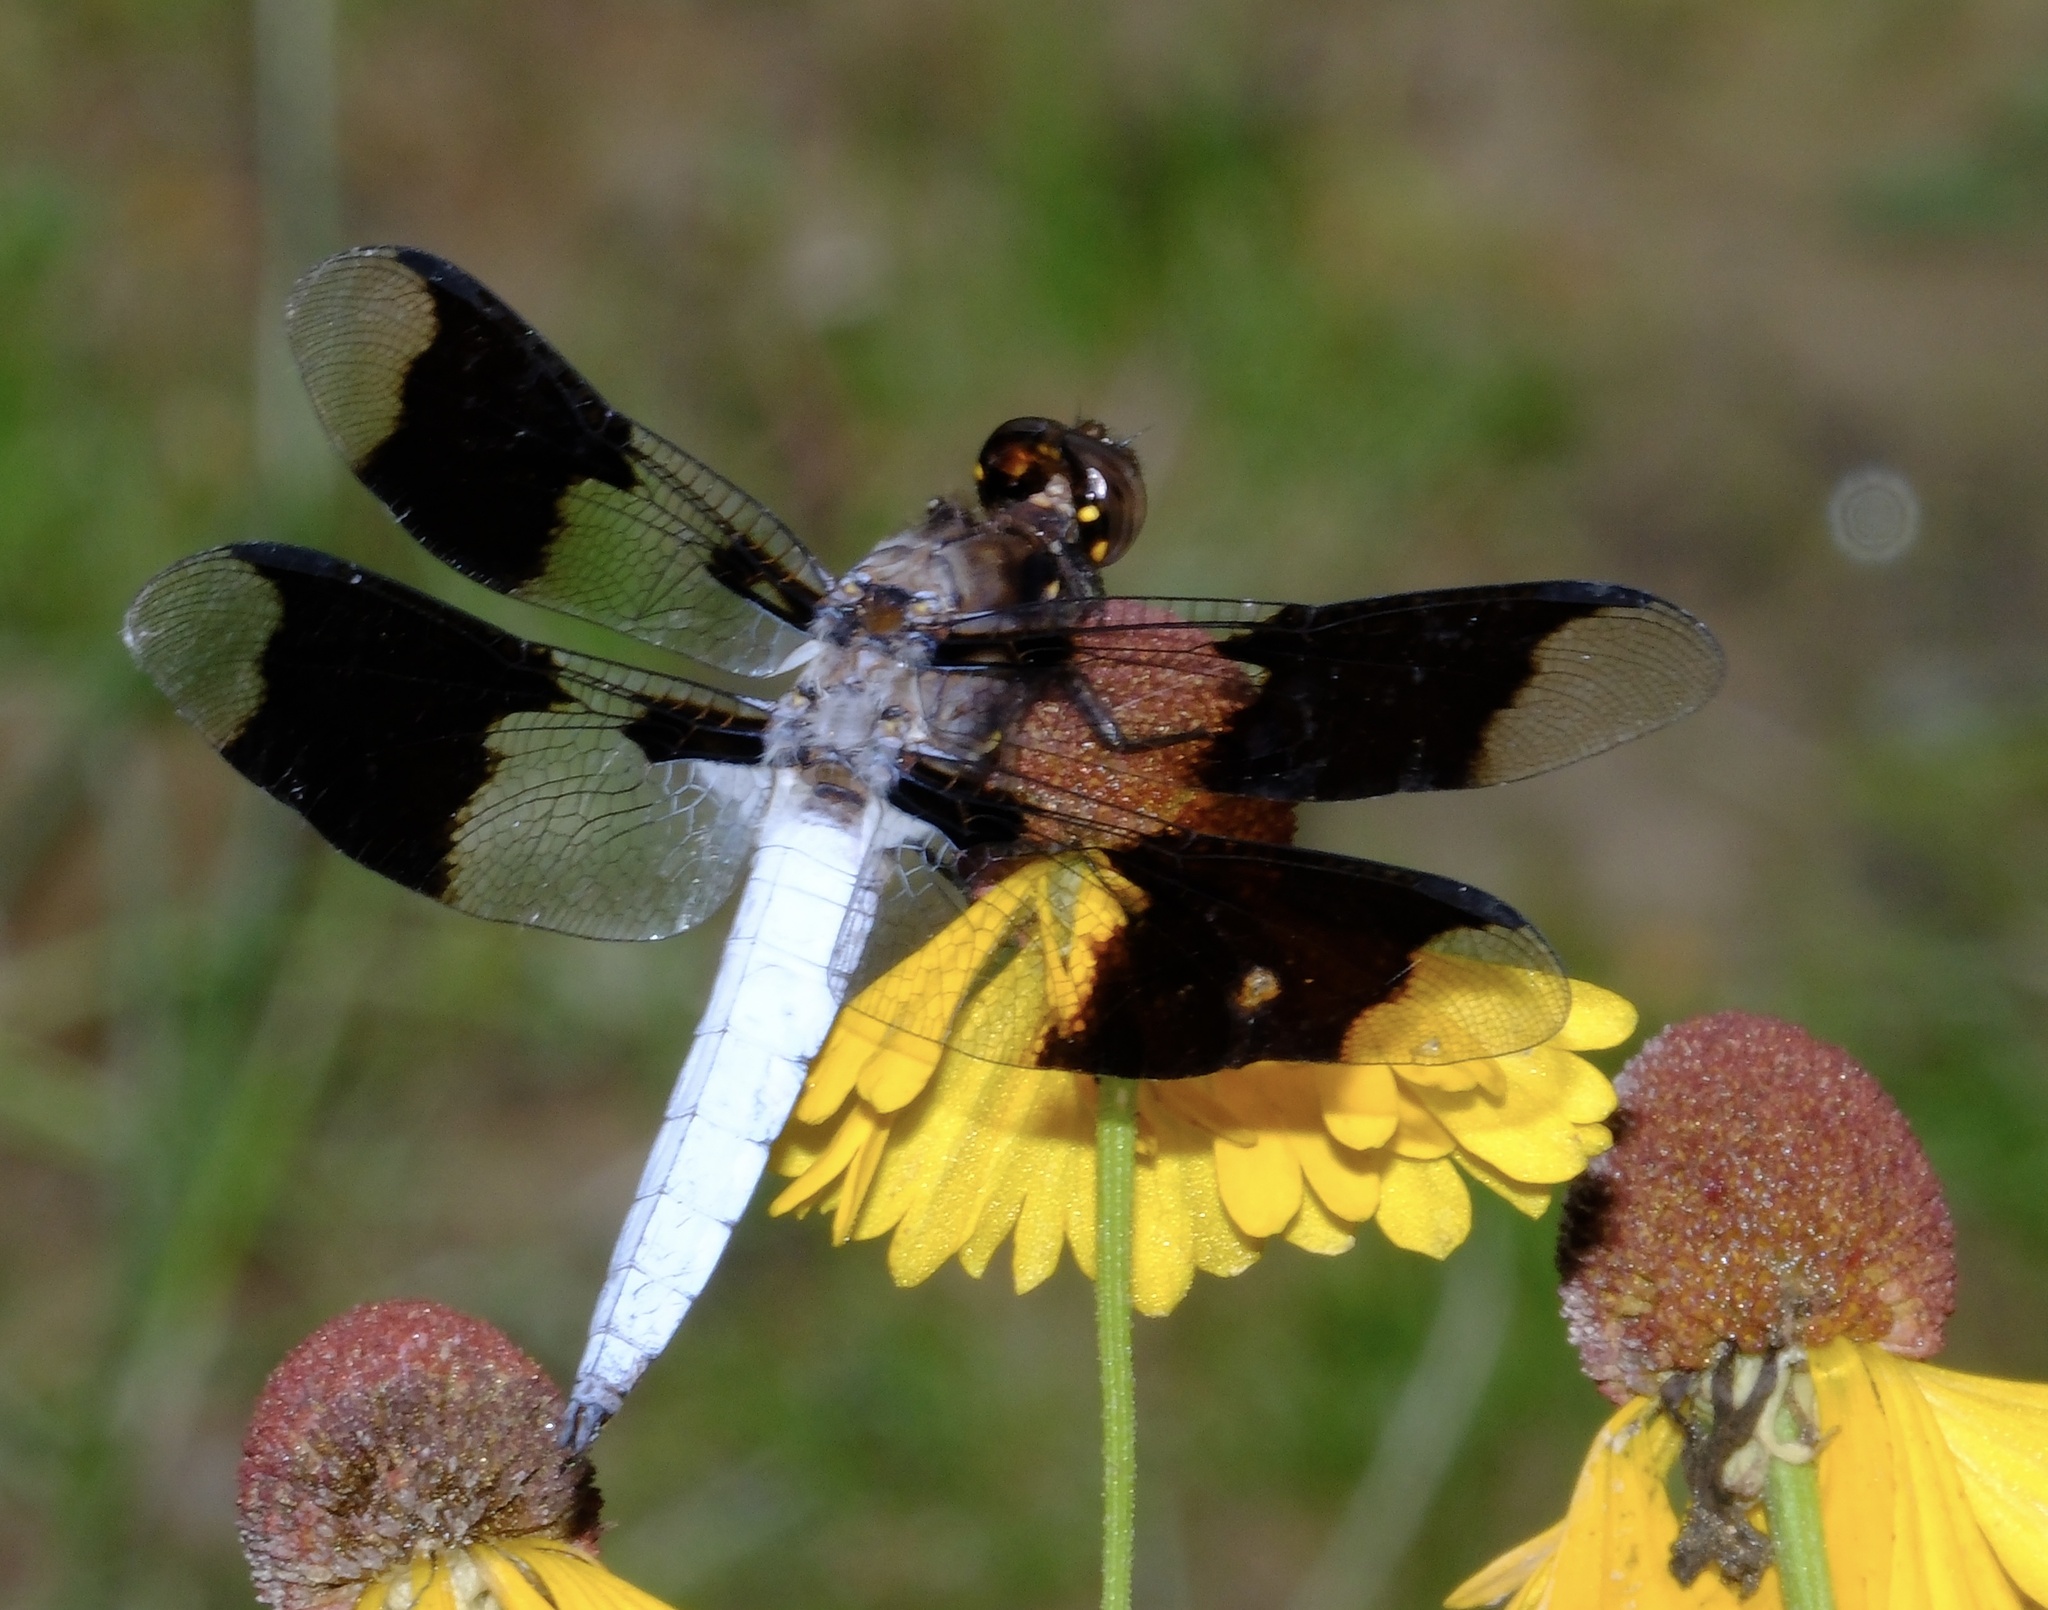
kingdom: Animalia
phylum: Arthropoda
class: Insecta
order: Odonata
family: Libellulidae
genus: Plathemis
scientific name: Plathemis lydia
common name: Common whitetail
